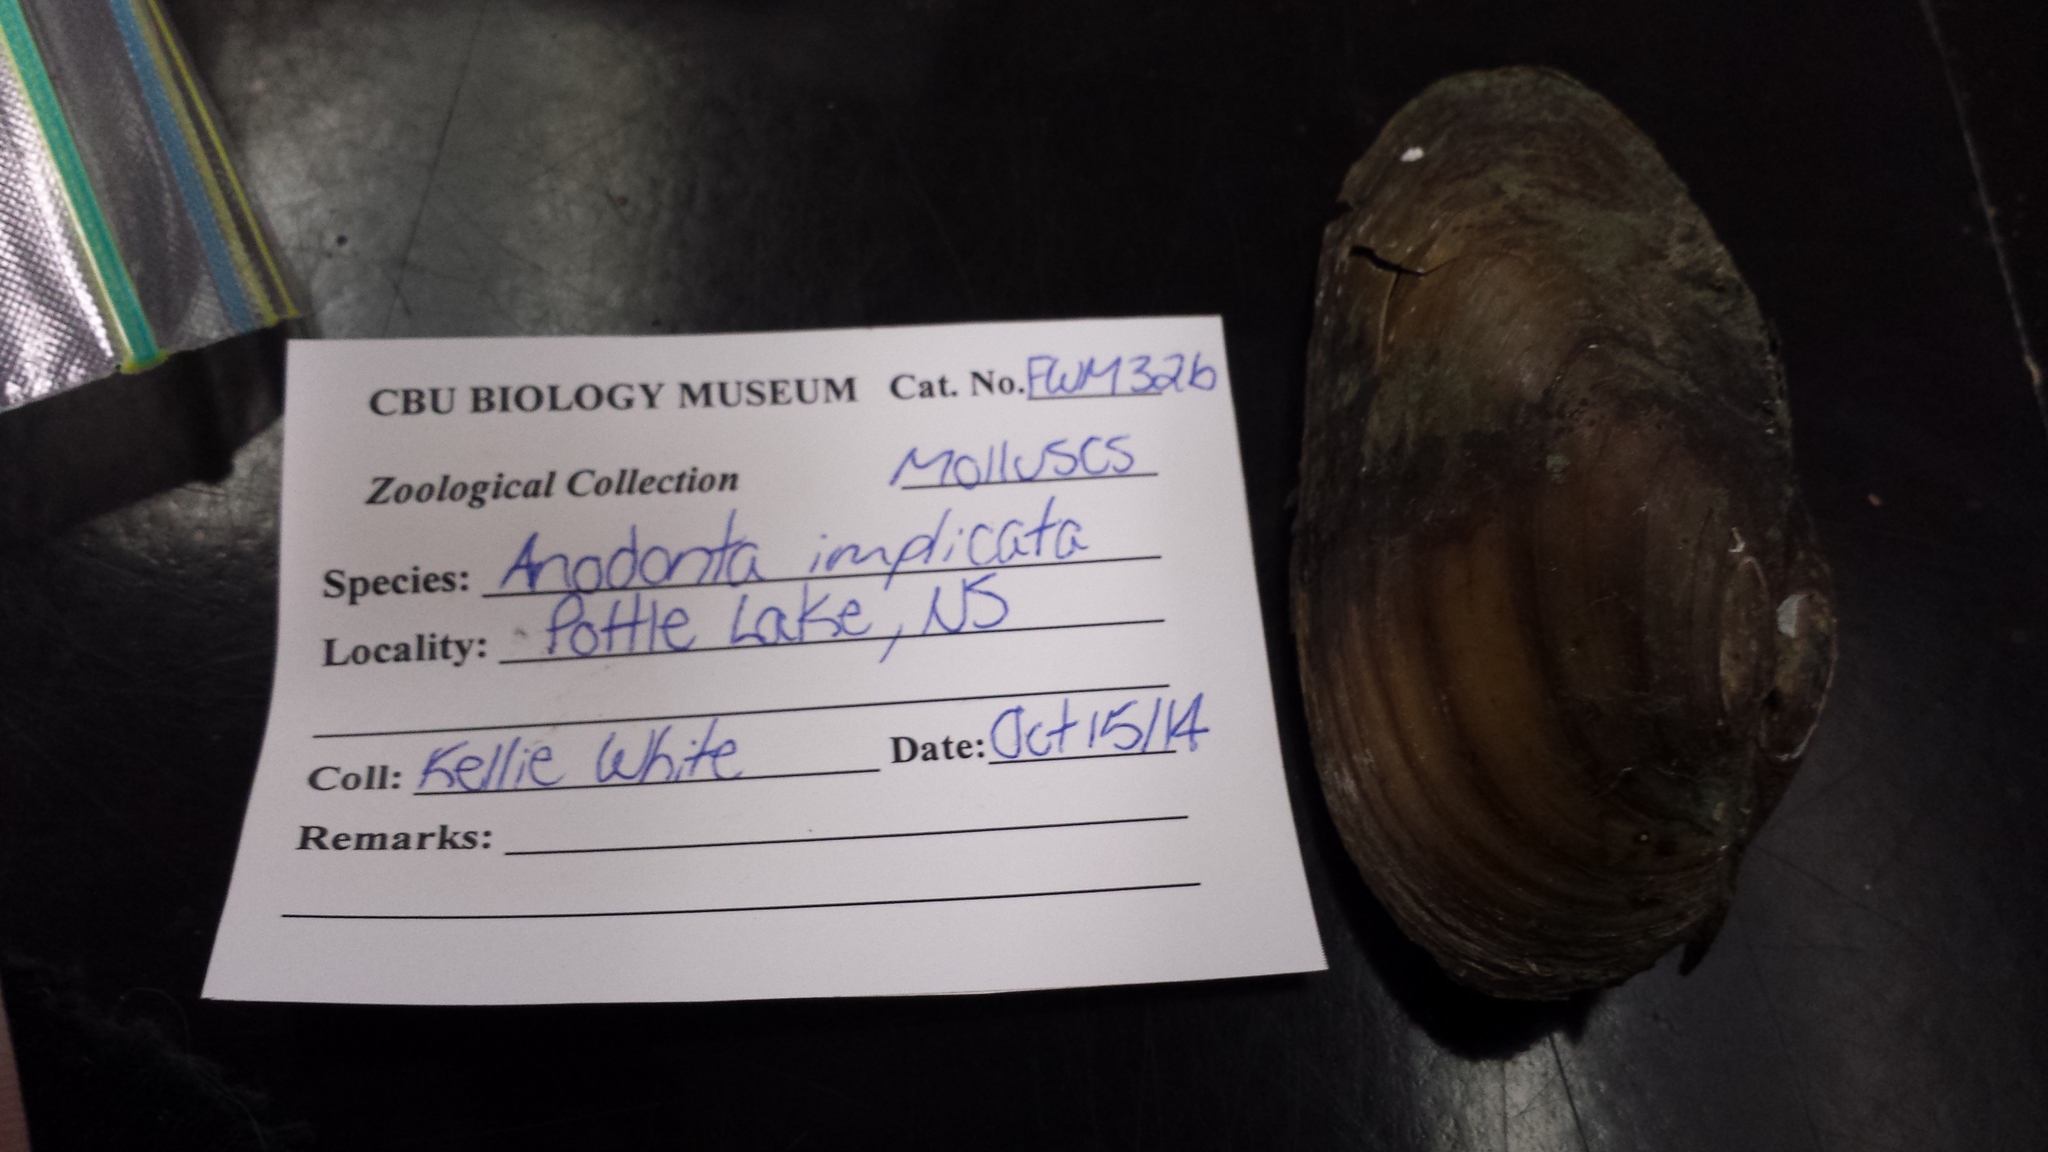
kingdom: Animalia
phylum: Mollusca
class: Bivalvia
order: Unionida
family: Unionidae
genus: Utterbackiana
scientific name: Utterbackiana implicata
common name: Alewife floater
